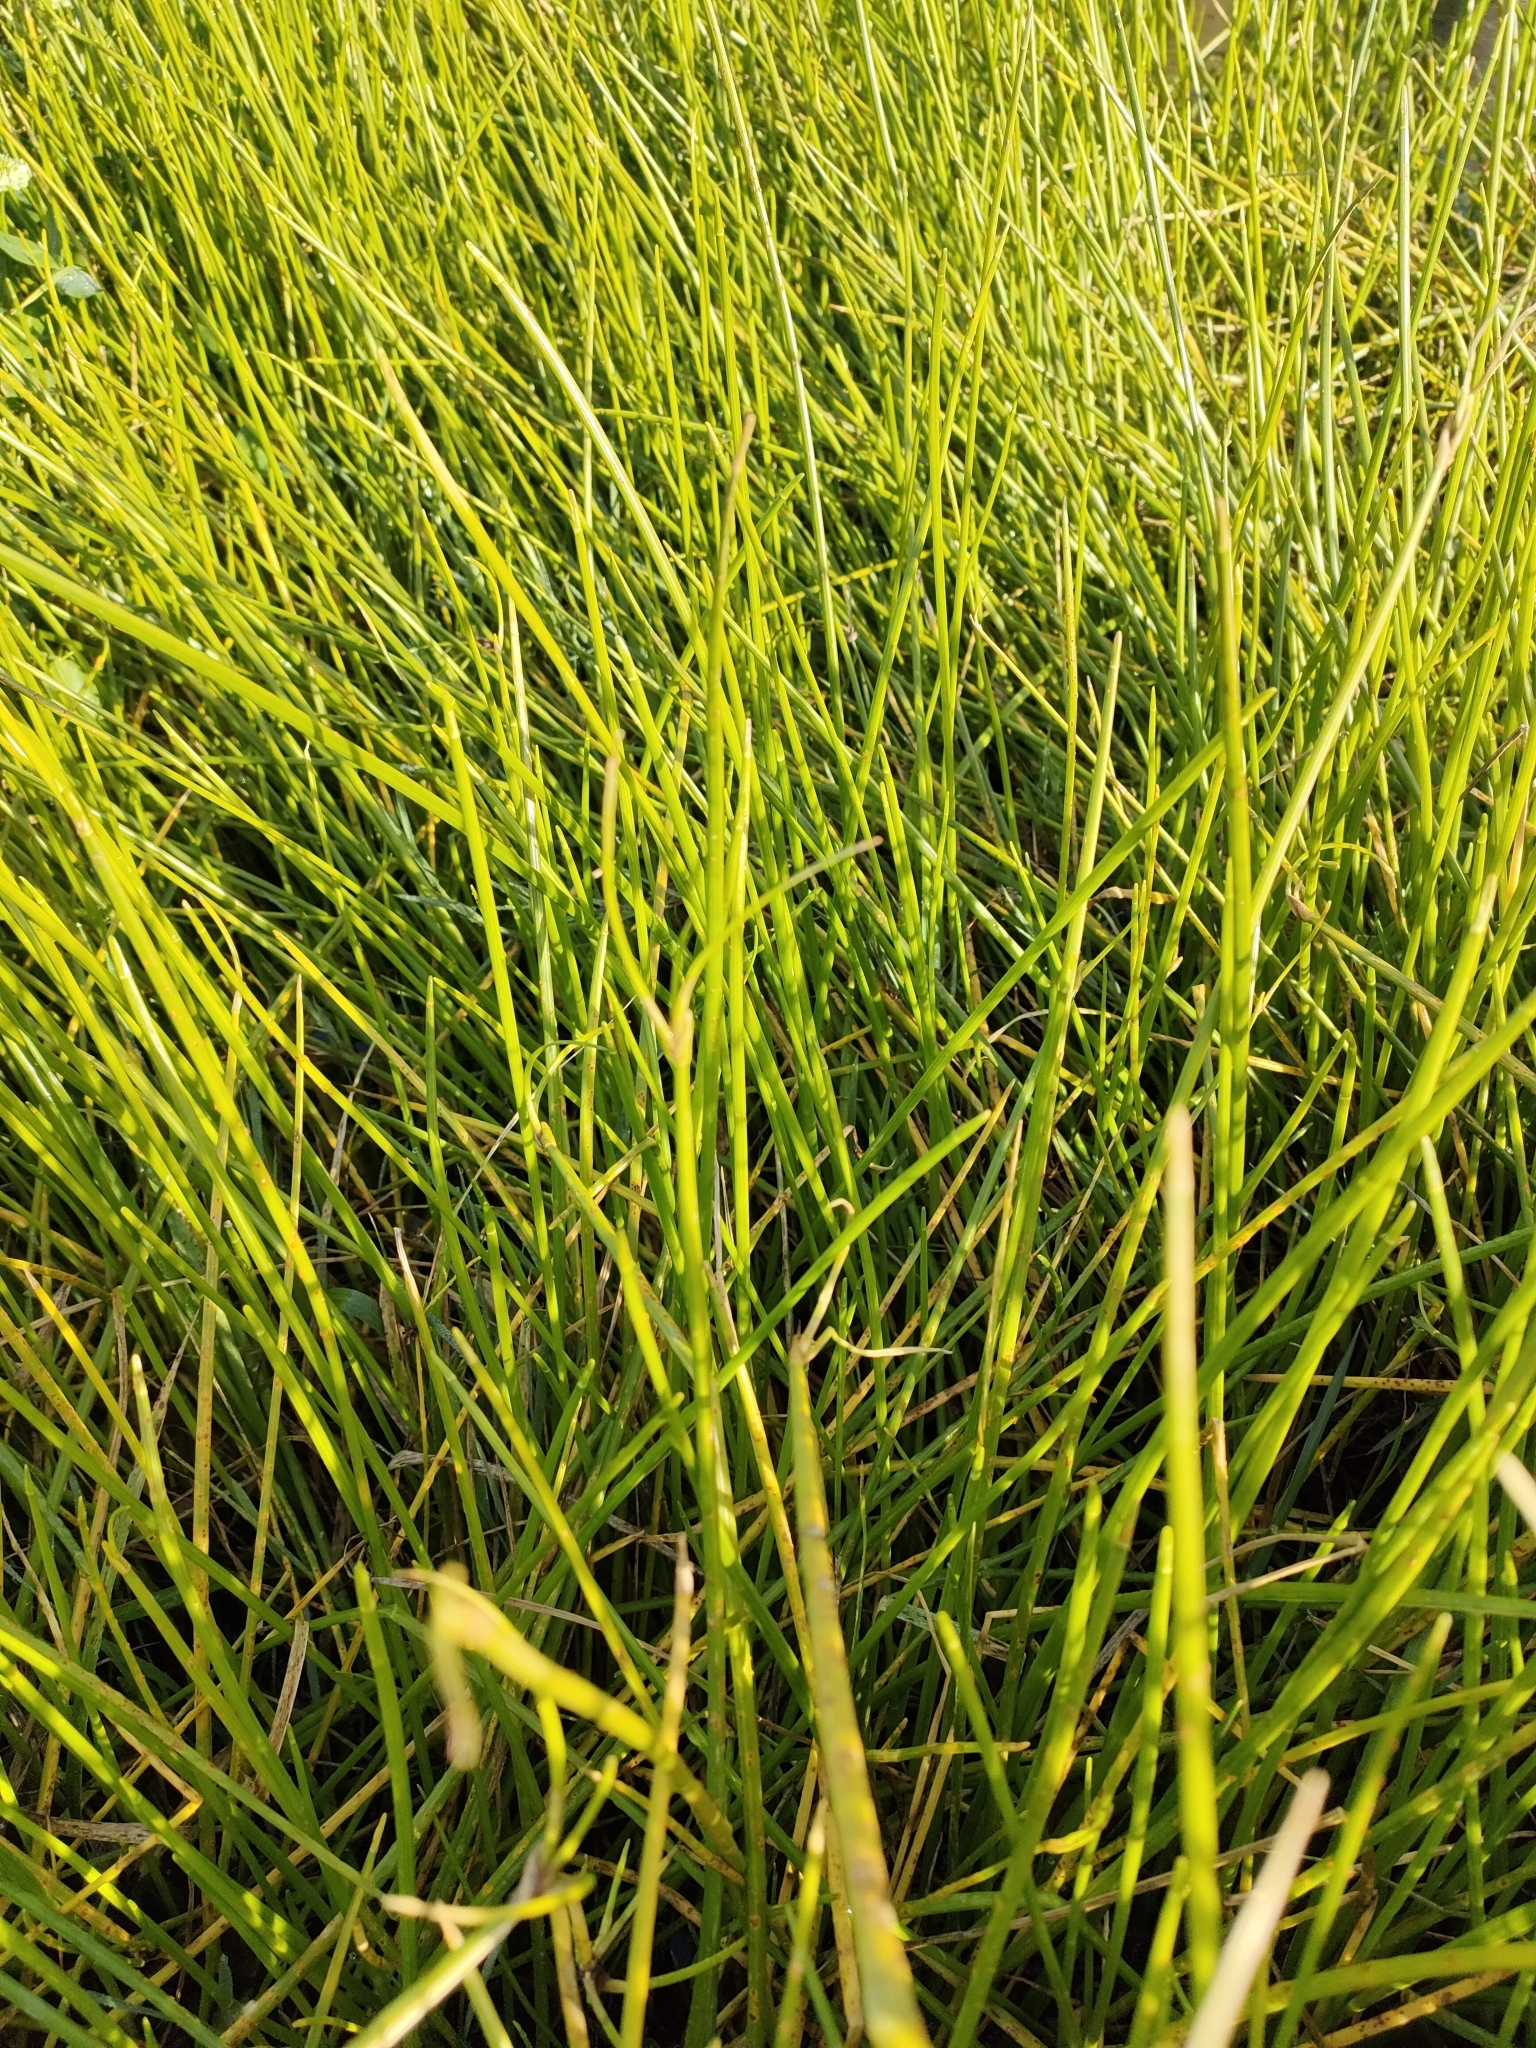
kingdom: Plantae
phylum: Tracheophyta
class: Liliopsida
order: Poales
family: Cyperaceae
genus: Isolepis
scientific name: Isolepis prolifera
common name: Proliferating bulrush
